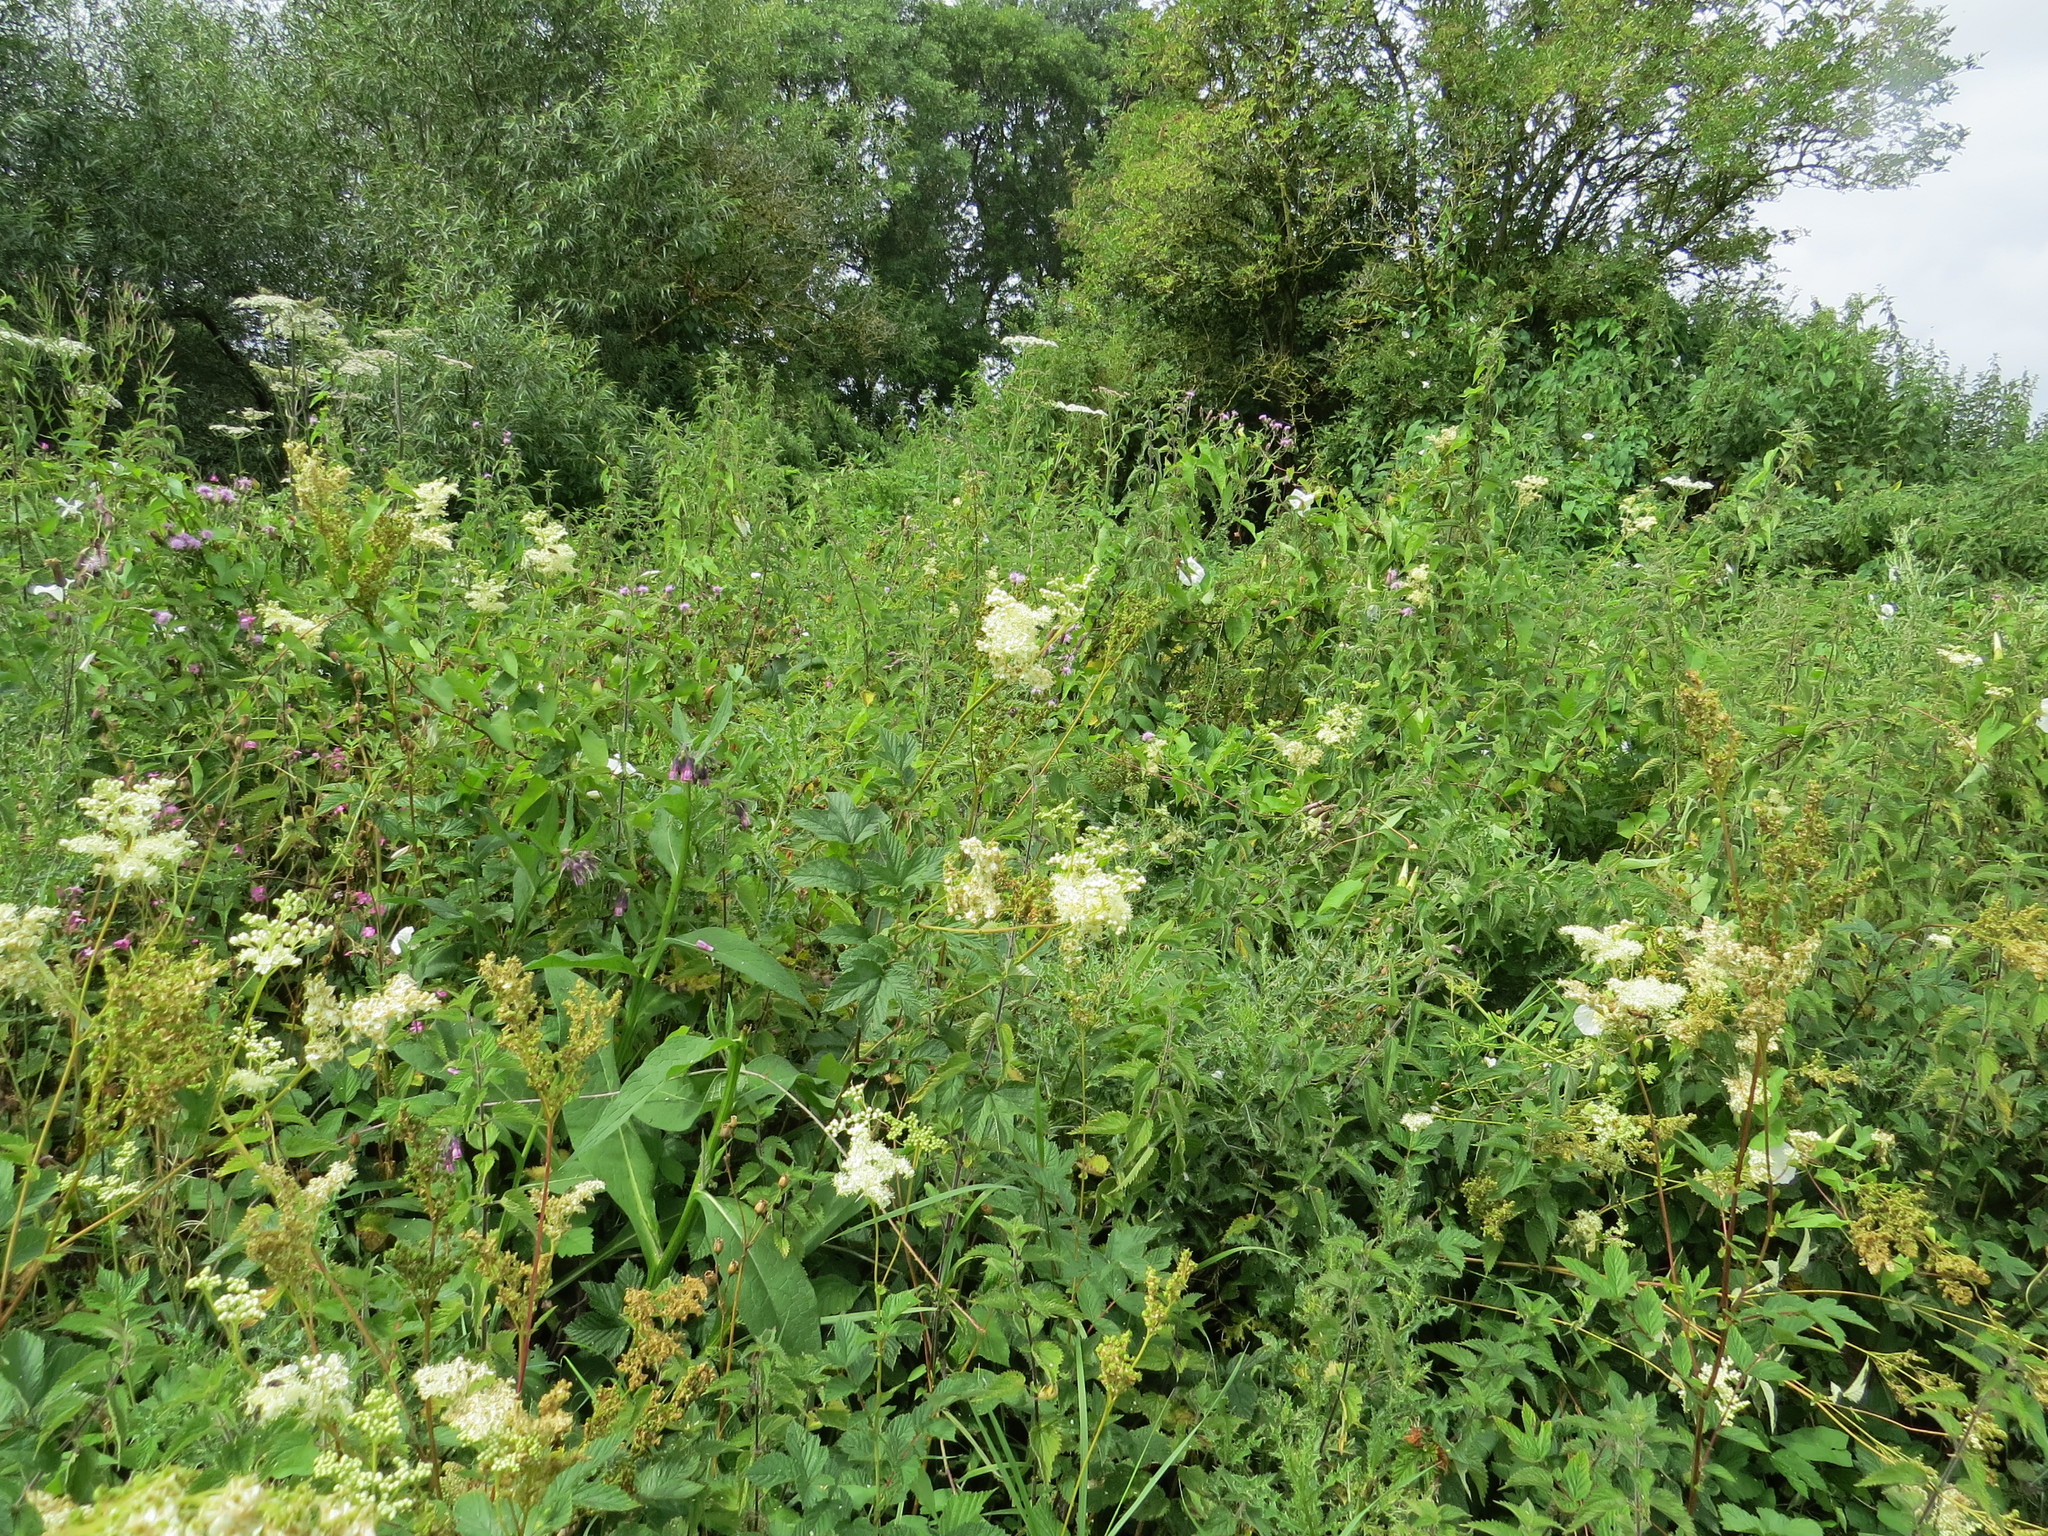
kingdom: Plantae
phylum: Tracheophyta
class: Magnoliopsida
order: Rosales
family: Rosaceae
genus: Filipendula
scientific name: Filipendula ulmaria
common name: Meadowsweet
